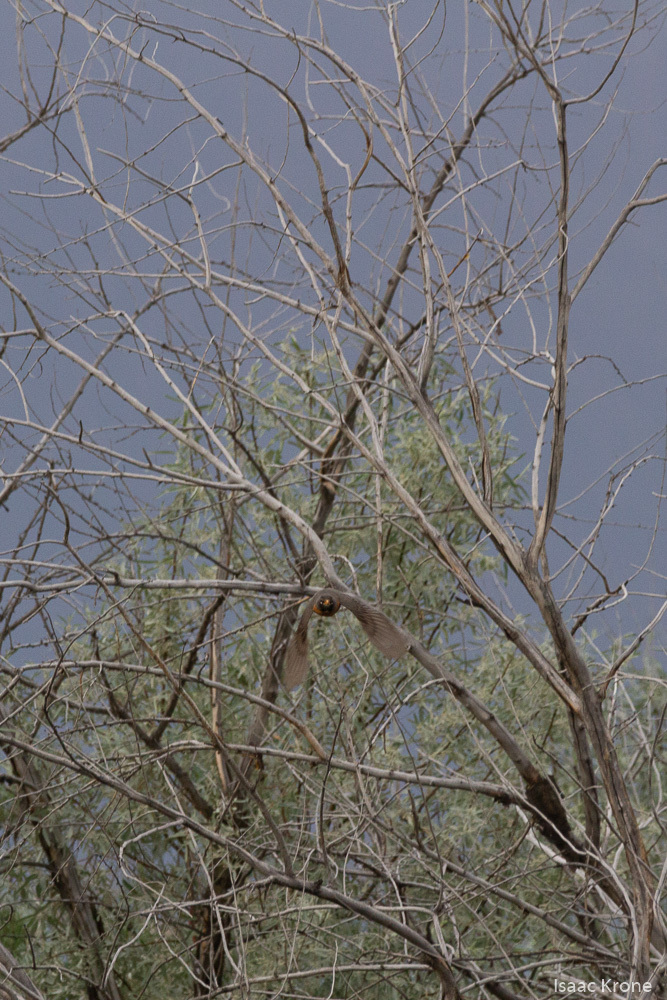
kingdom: Animalia
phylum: Chordata
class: Aves
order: Passeriformes
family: Turdidae
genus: Turdus
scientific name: Turdus migratorius
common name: American robin
